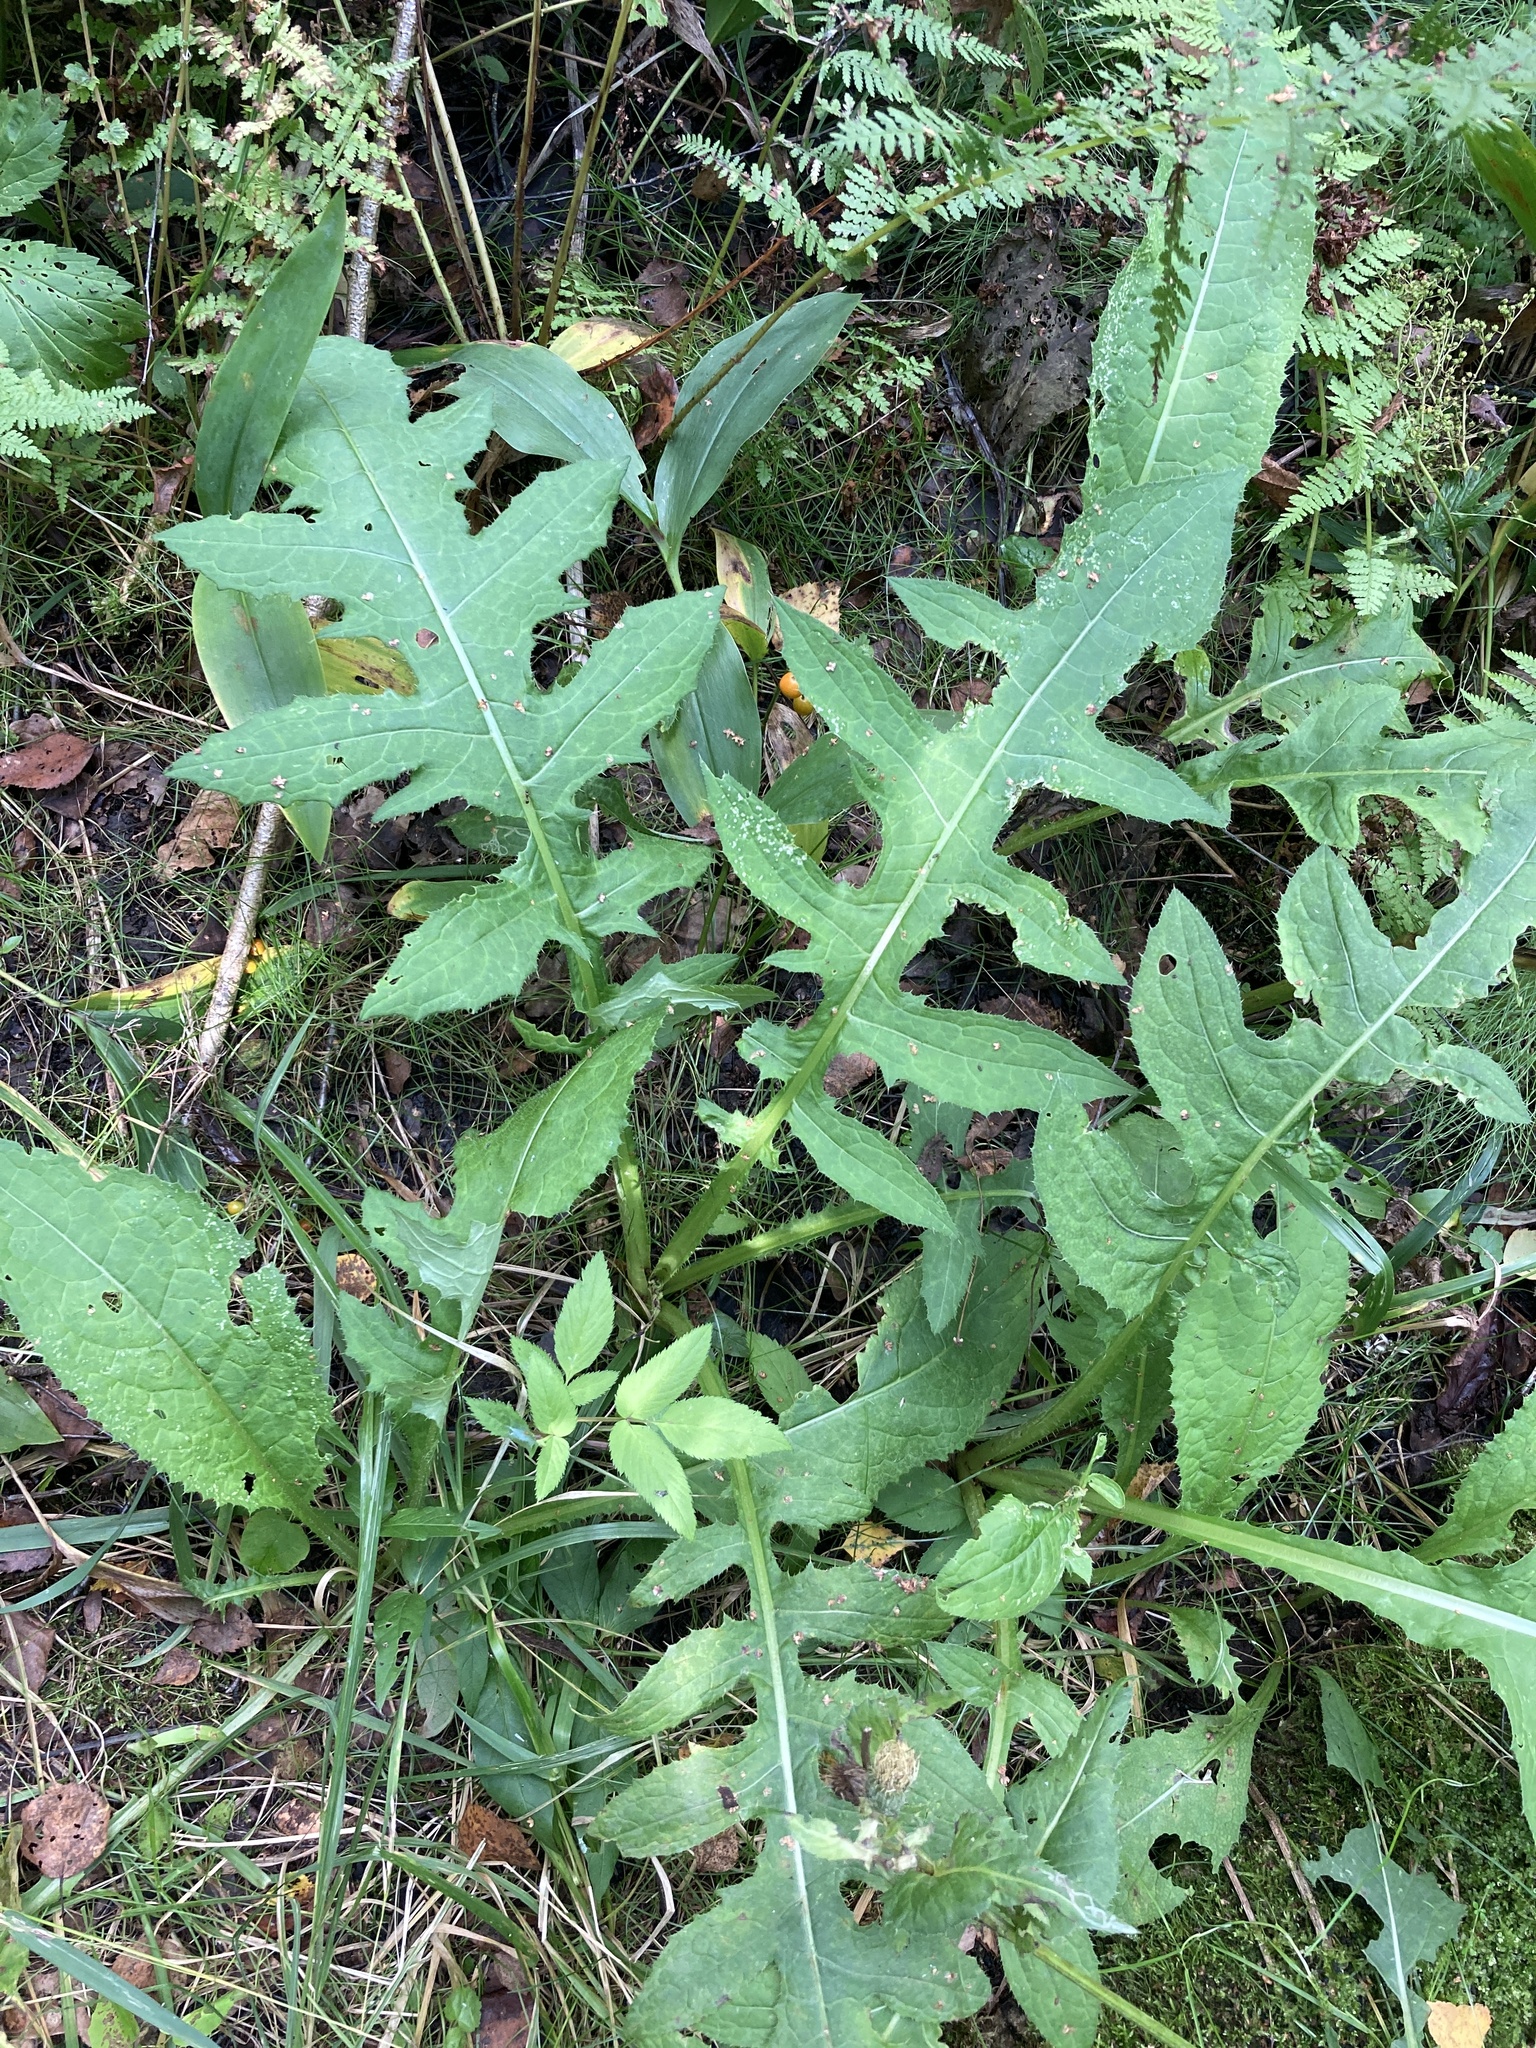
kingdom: Plantae
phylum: Tracheophyta
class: Magnoliopsida
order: Asterales
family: Asteraceae
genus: Cirsium
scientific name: Cirsium oleraceum
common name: Cabbage thistle
